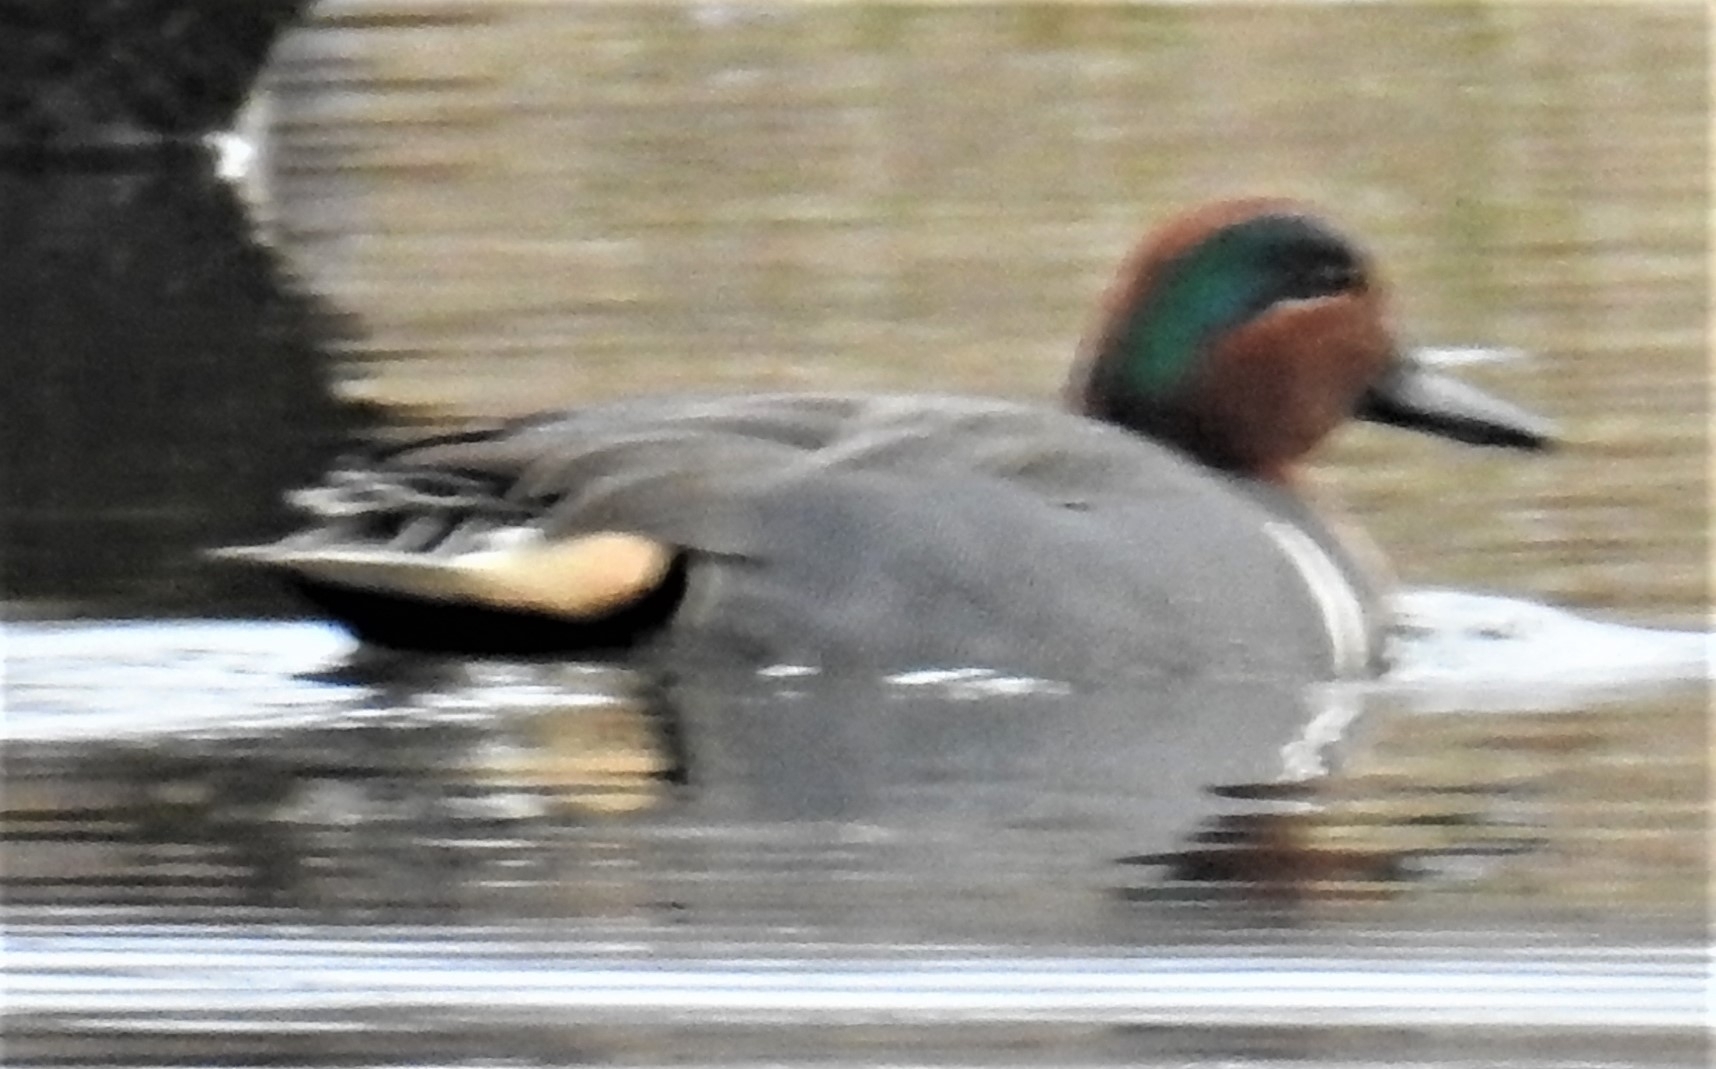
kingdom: Animalia
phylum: Chordata
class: Aves
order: Anseriformes
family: Anatidae
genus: Anas
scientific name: Anas crecca
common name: Eurasian teal
